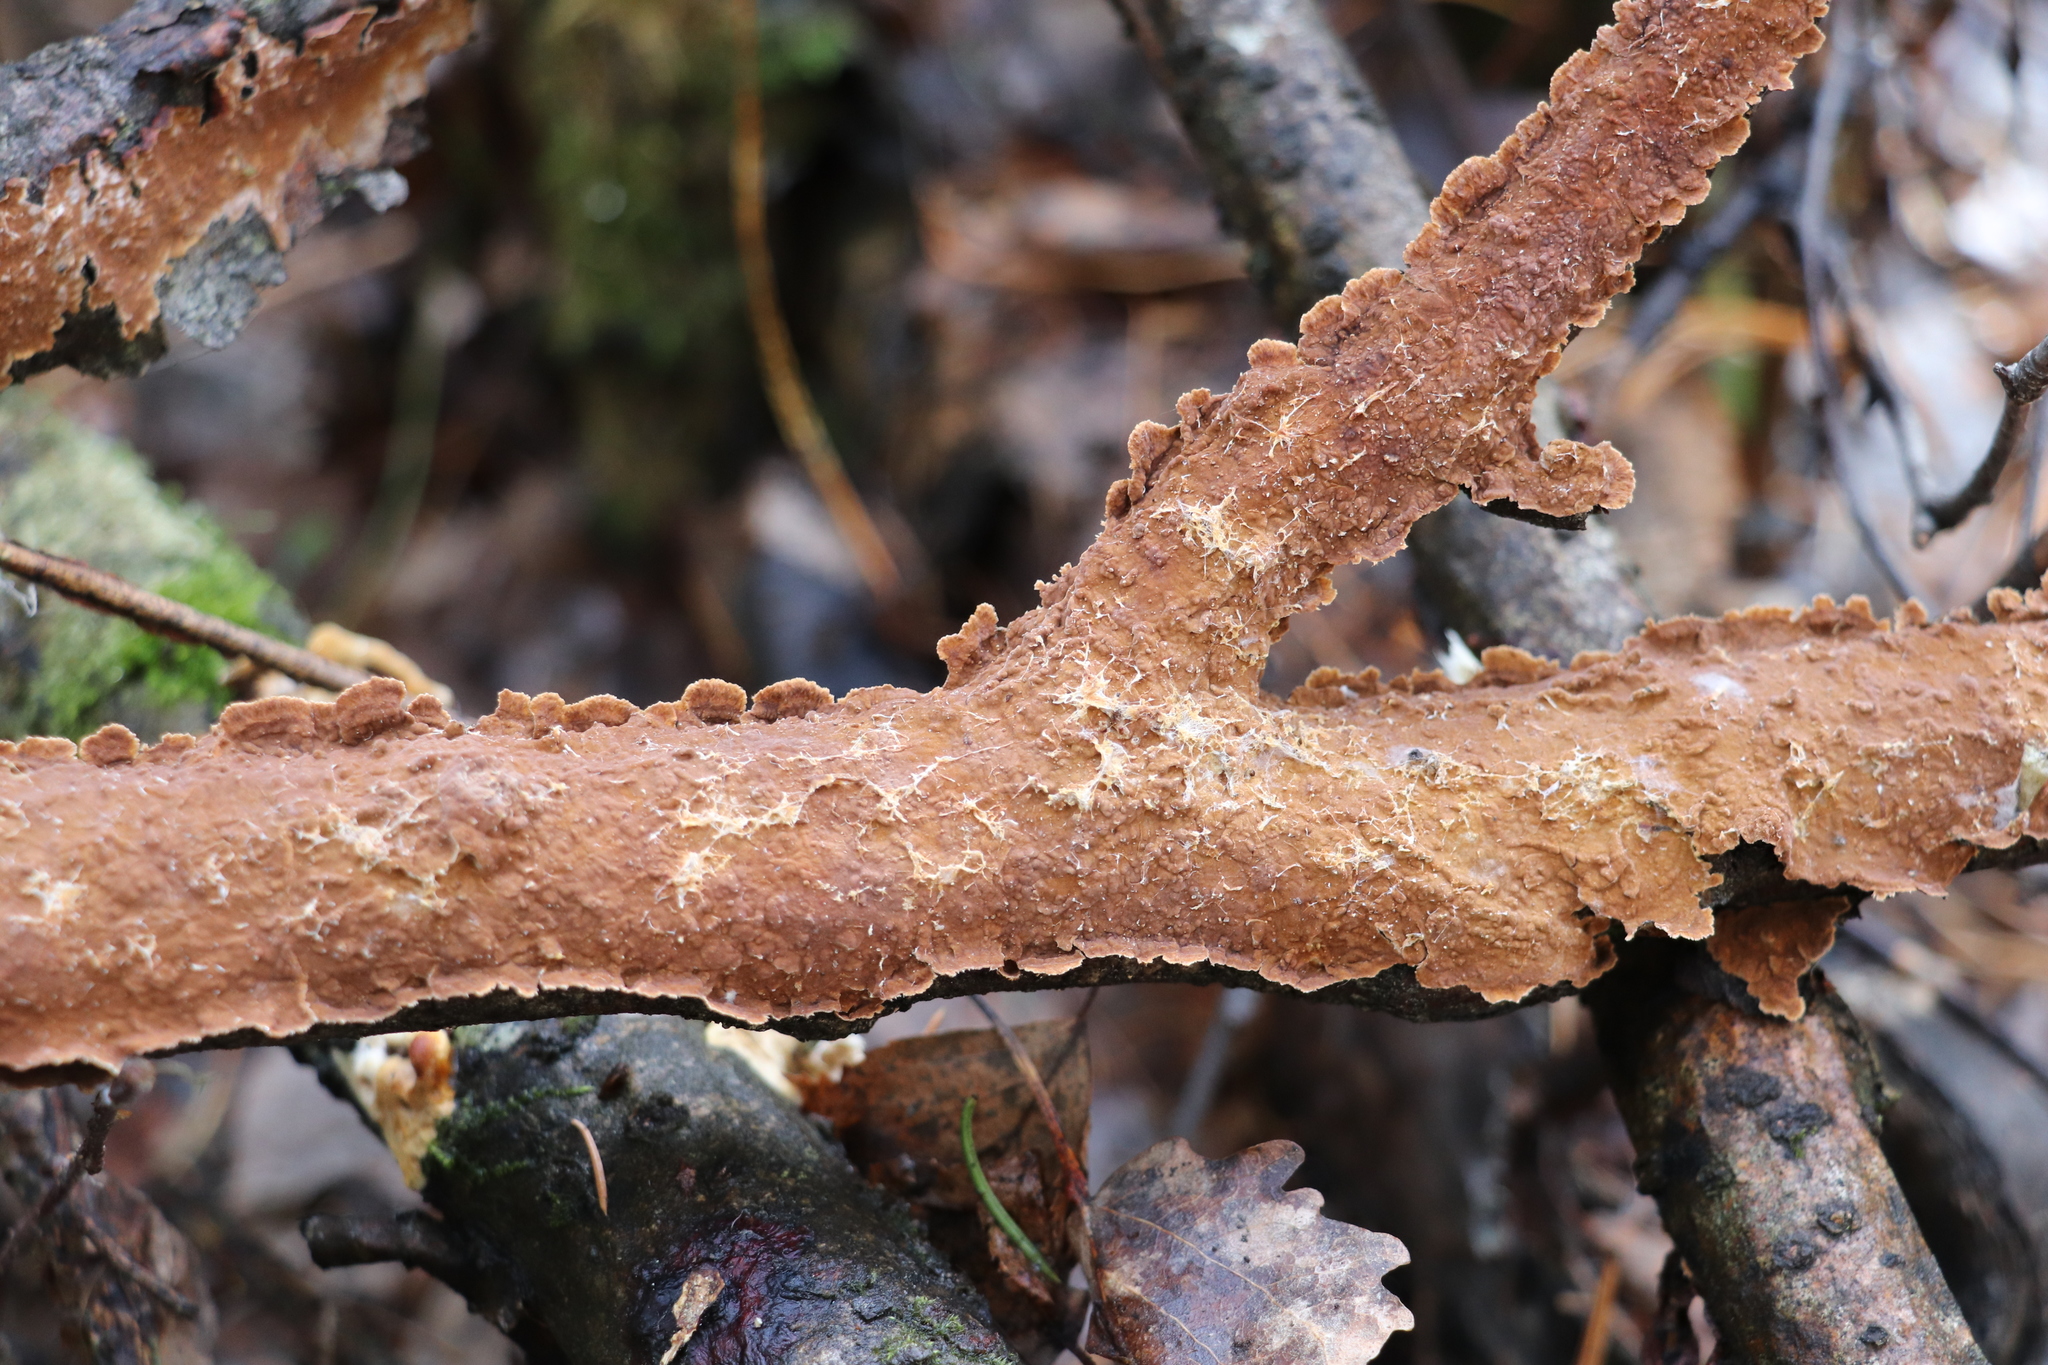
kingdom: Fungi
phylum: Basidiomycota
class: Agaricomycetes
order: Hymenochaetales
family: Hymenochaetaceae
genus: Hydnoporia
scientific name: Hydnoporia tabacina
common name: Willow glue
